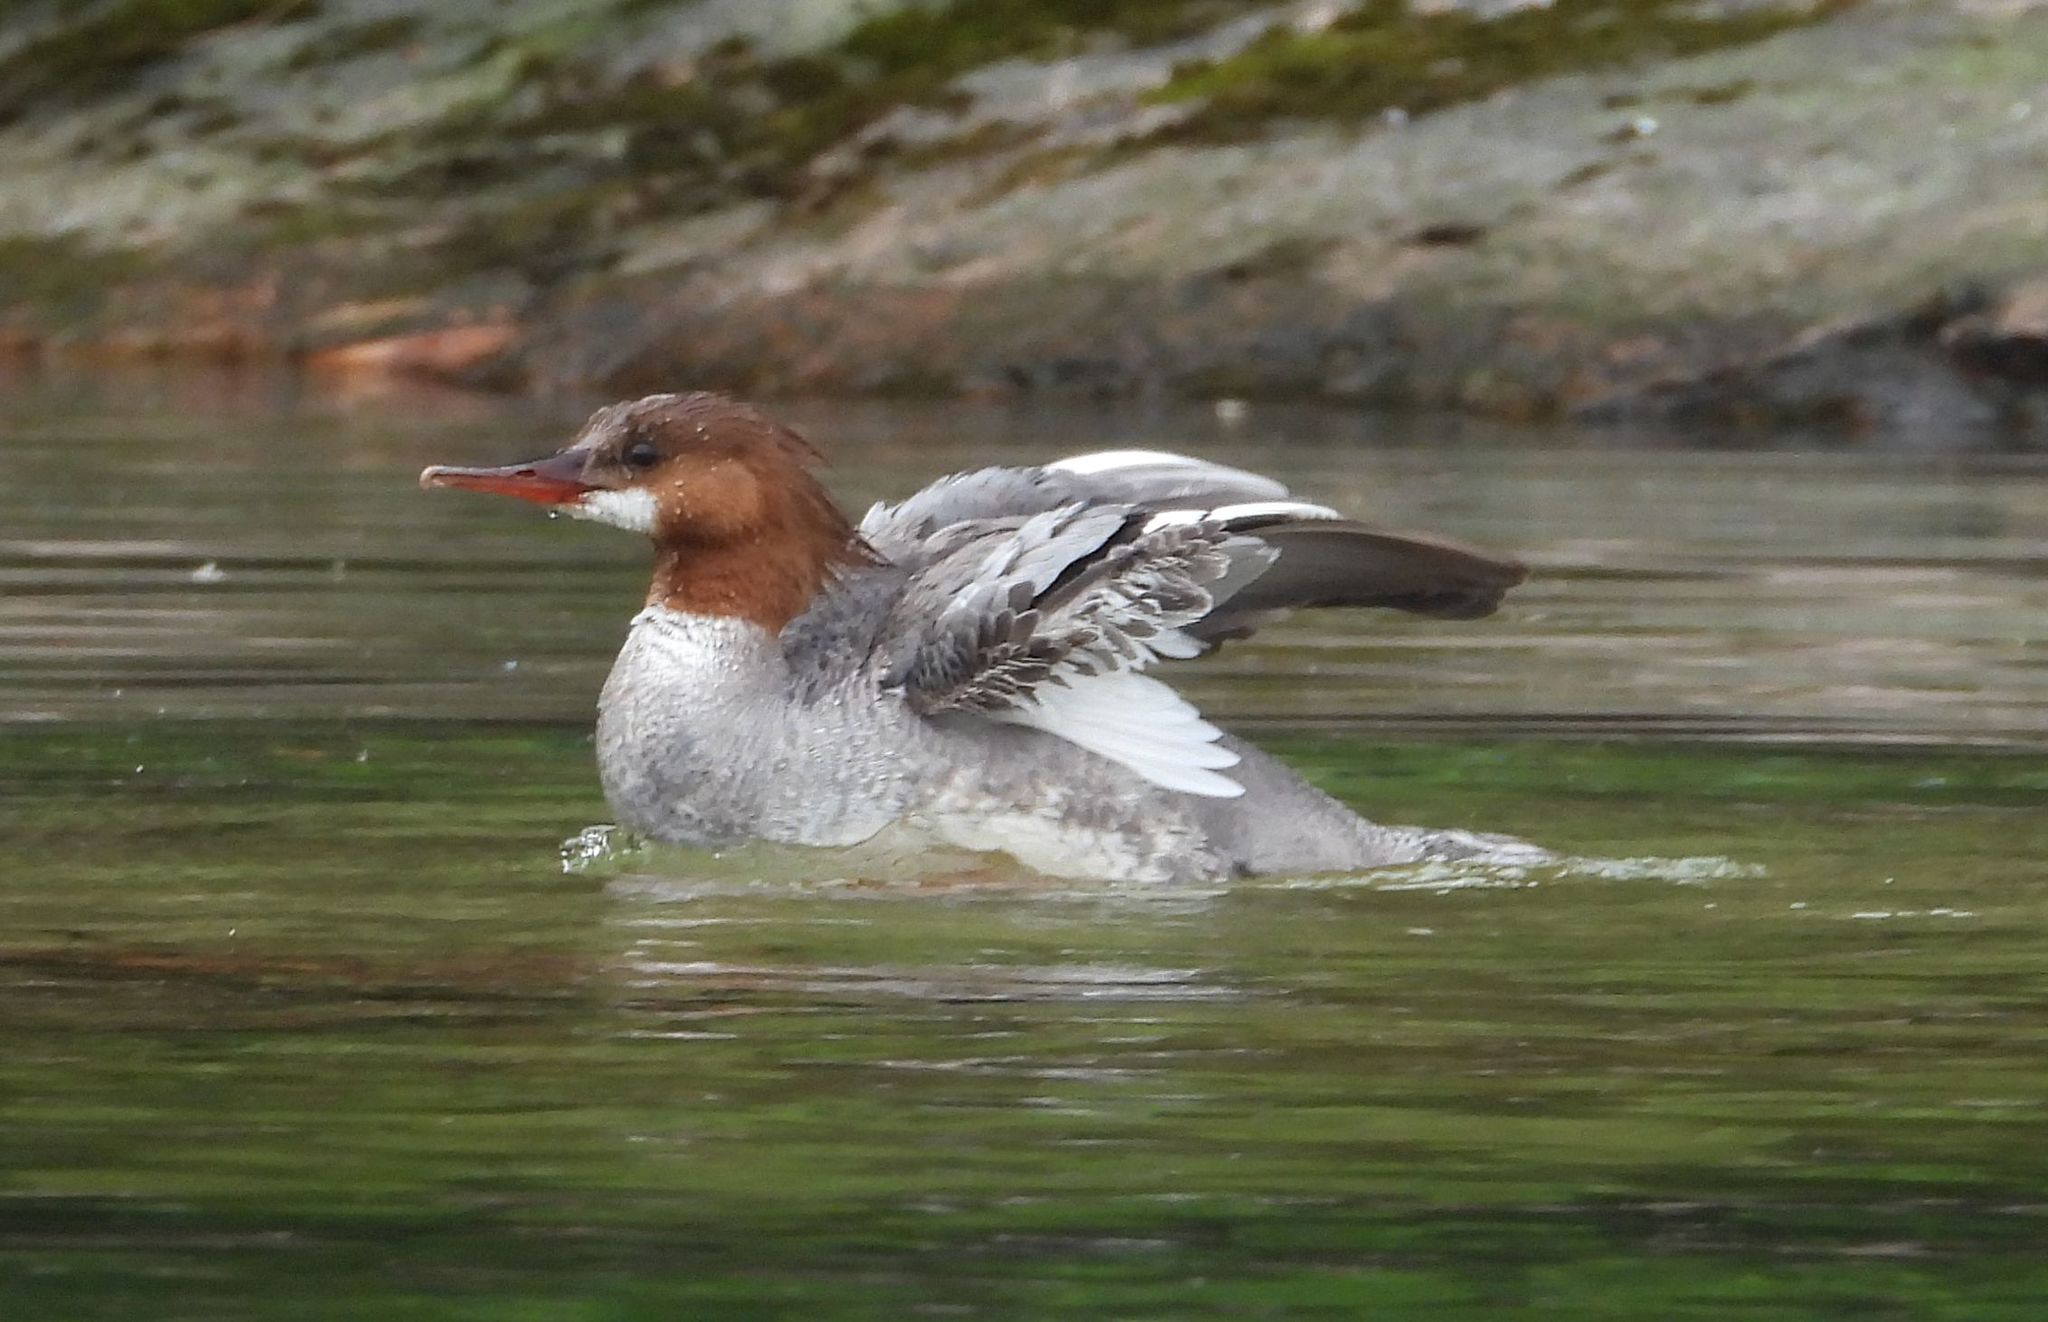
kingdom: Animalia
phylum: Chordata
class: Aves
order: Anseriformes
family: Anatidae
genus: Mergus
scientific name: Mergus merganser
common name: Common merganser
